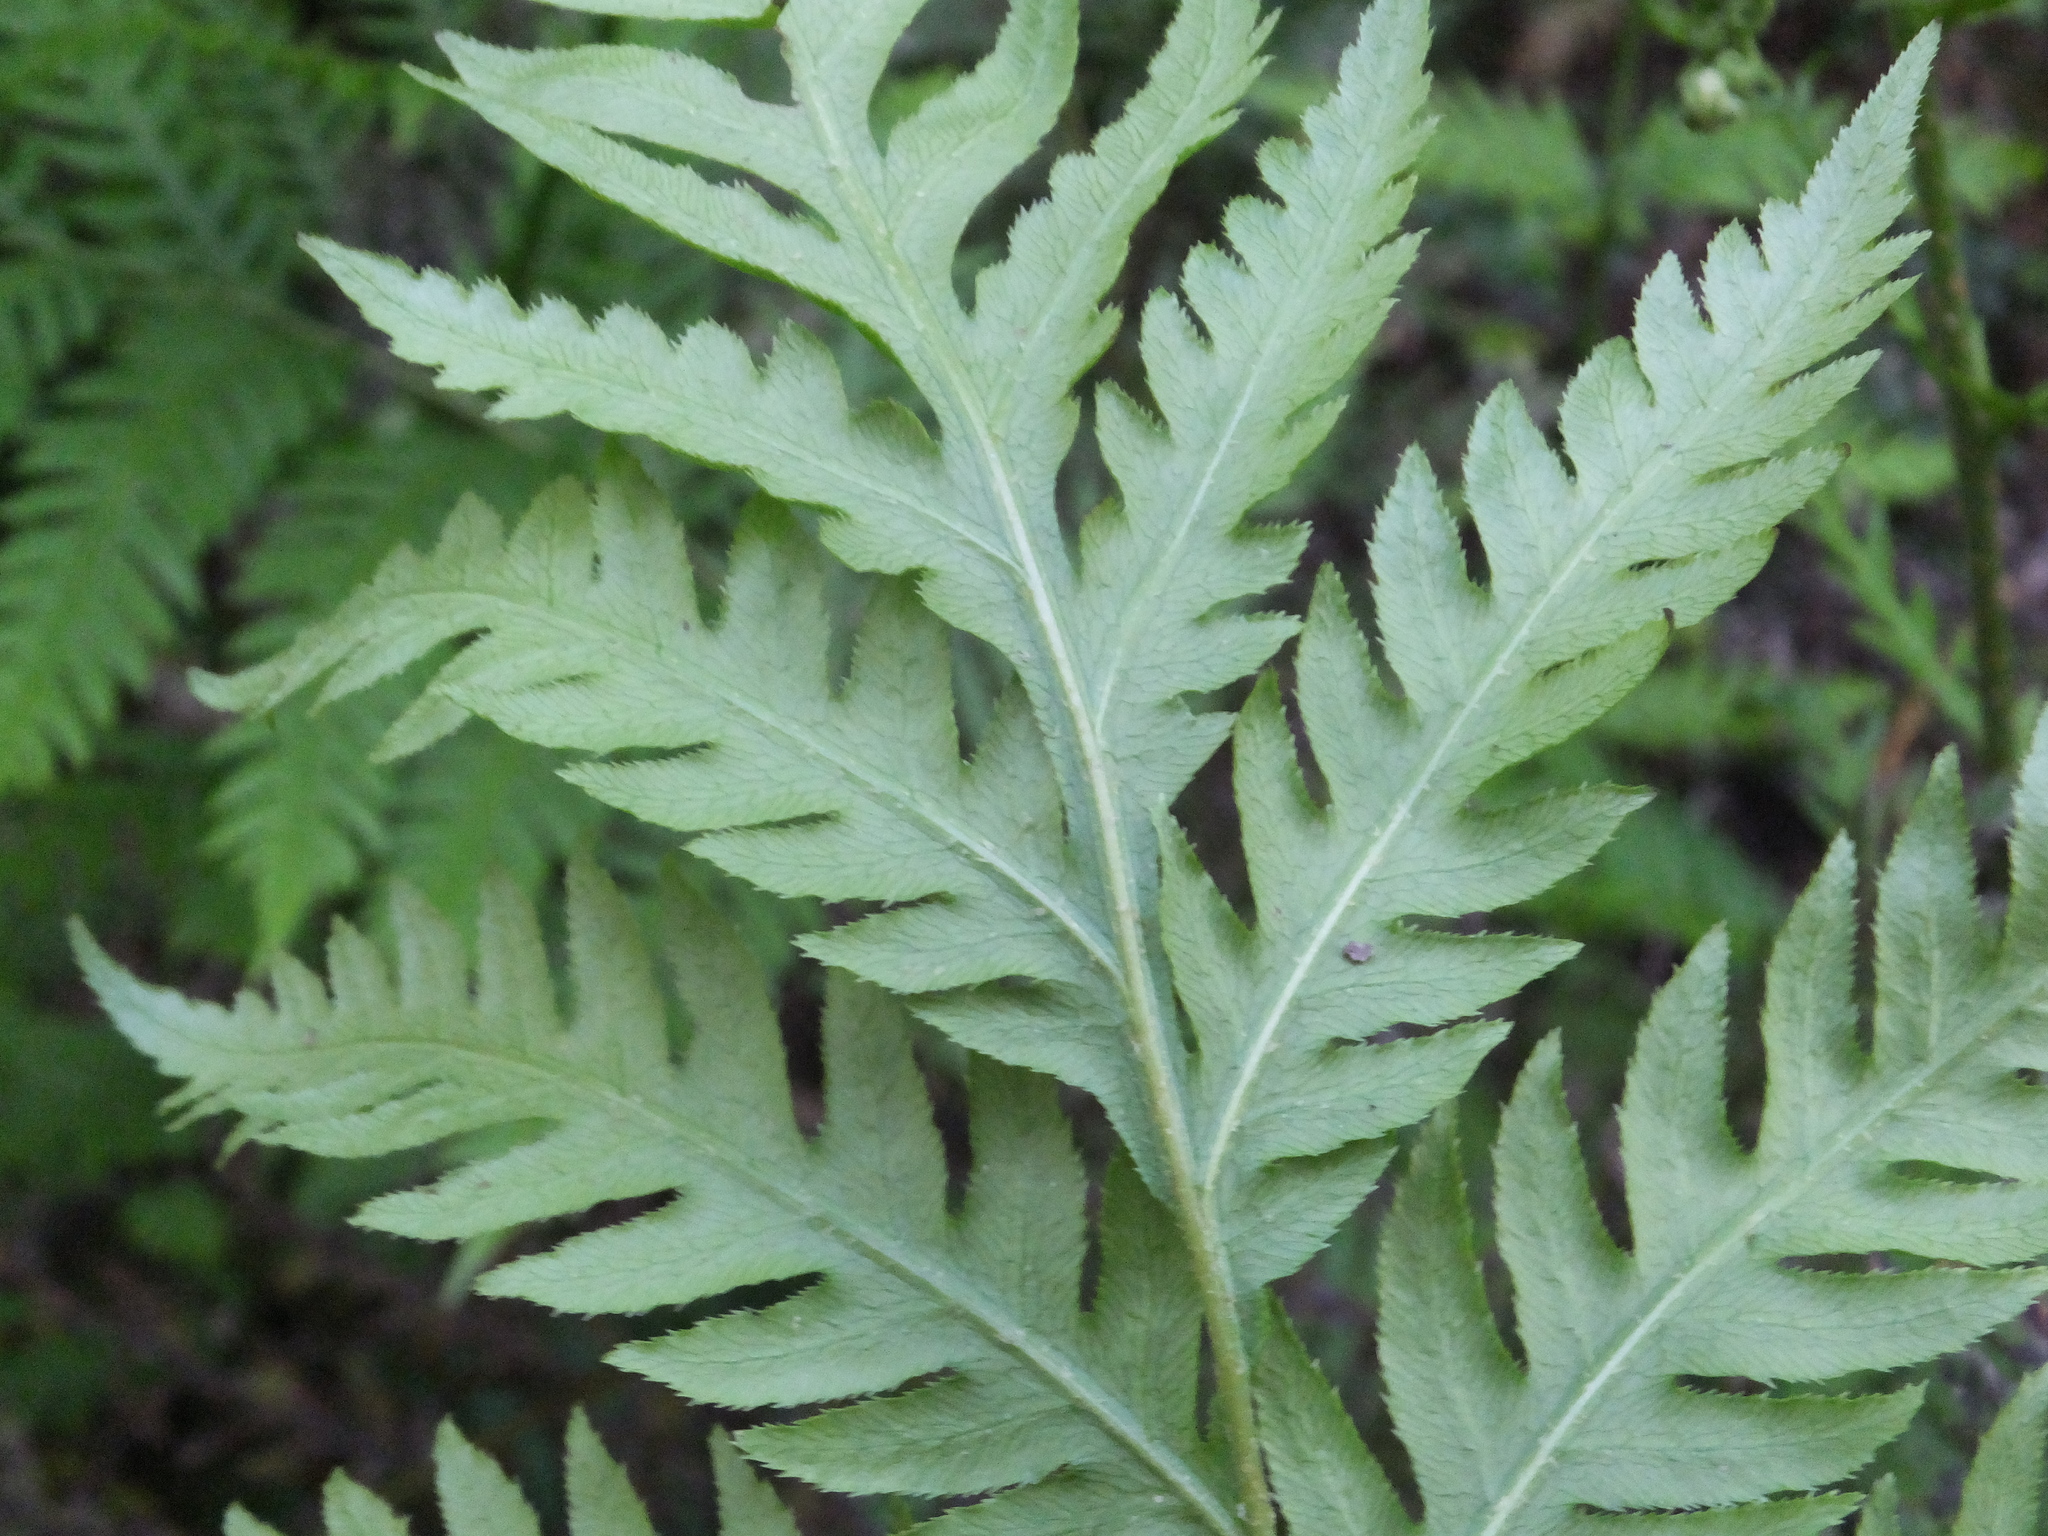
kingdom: Plantae
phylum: Tracheophyta
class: Polypodiopsida
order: Polypodiales
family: Blechnaceae
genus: Woodwardia
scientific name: Woodwardia fimbriata
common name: Giant chain fern
